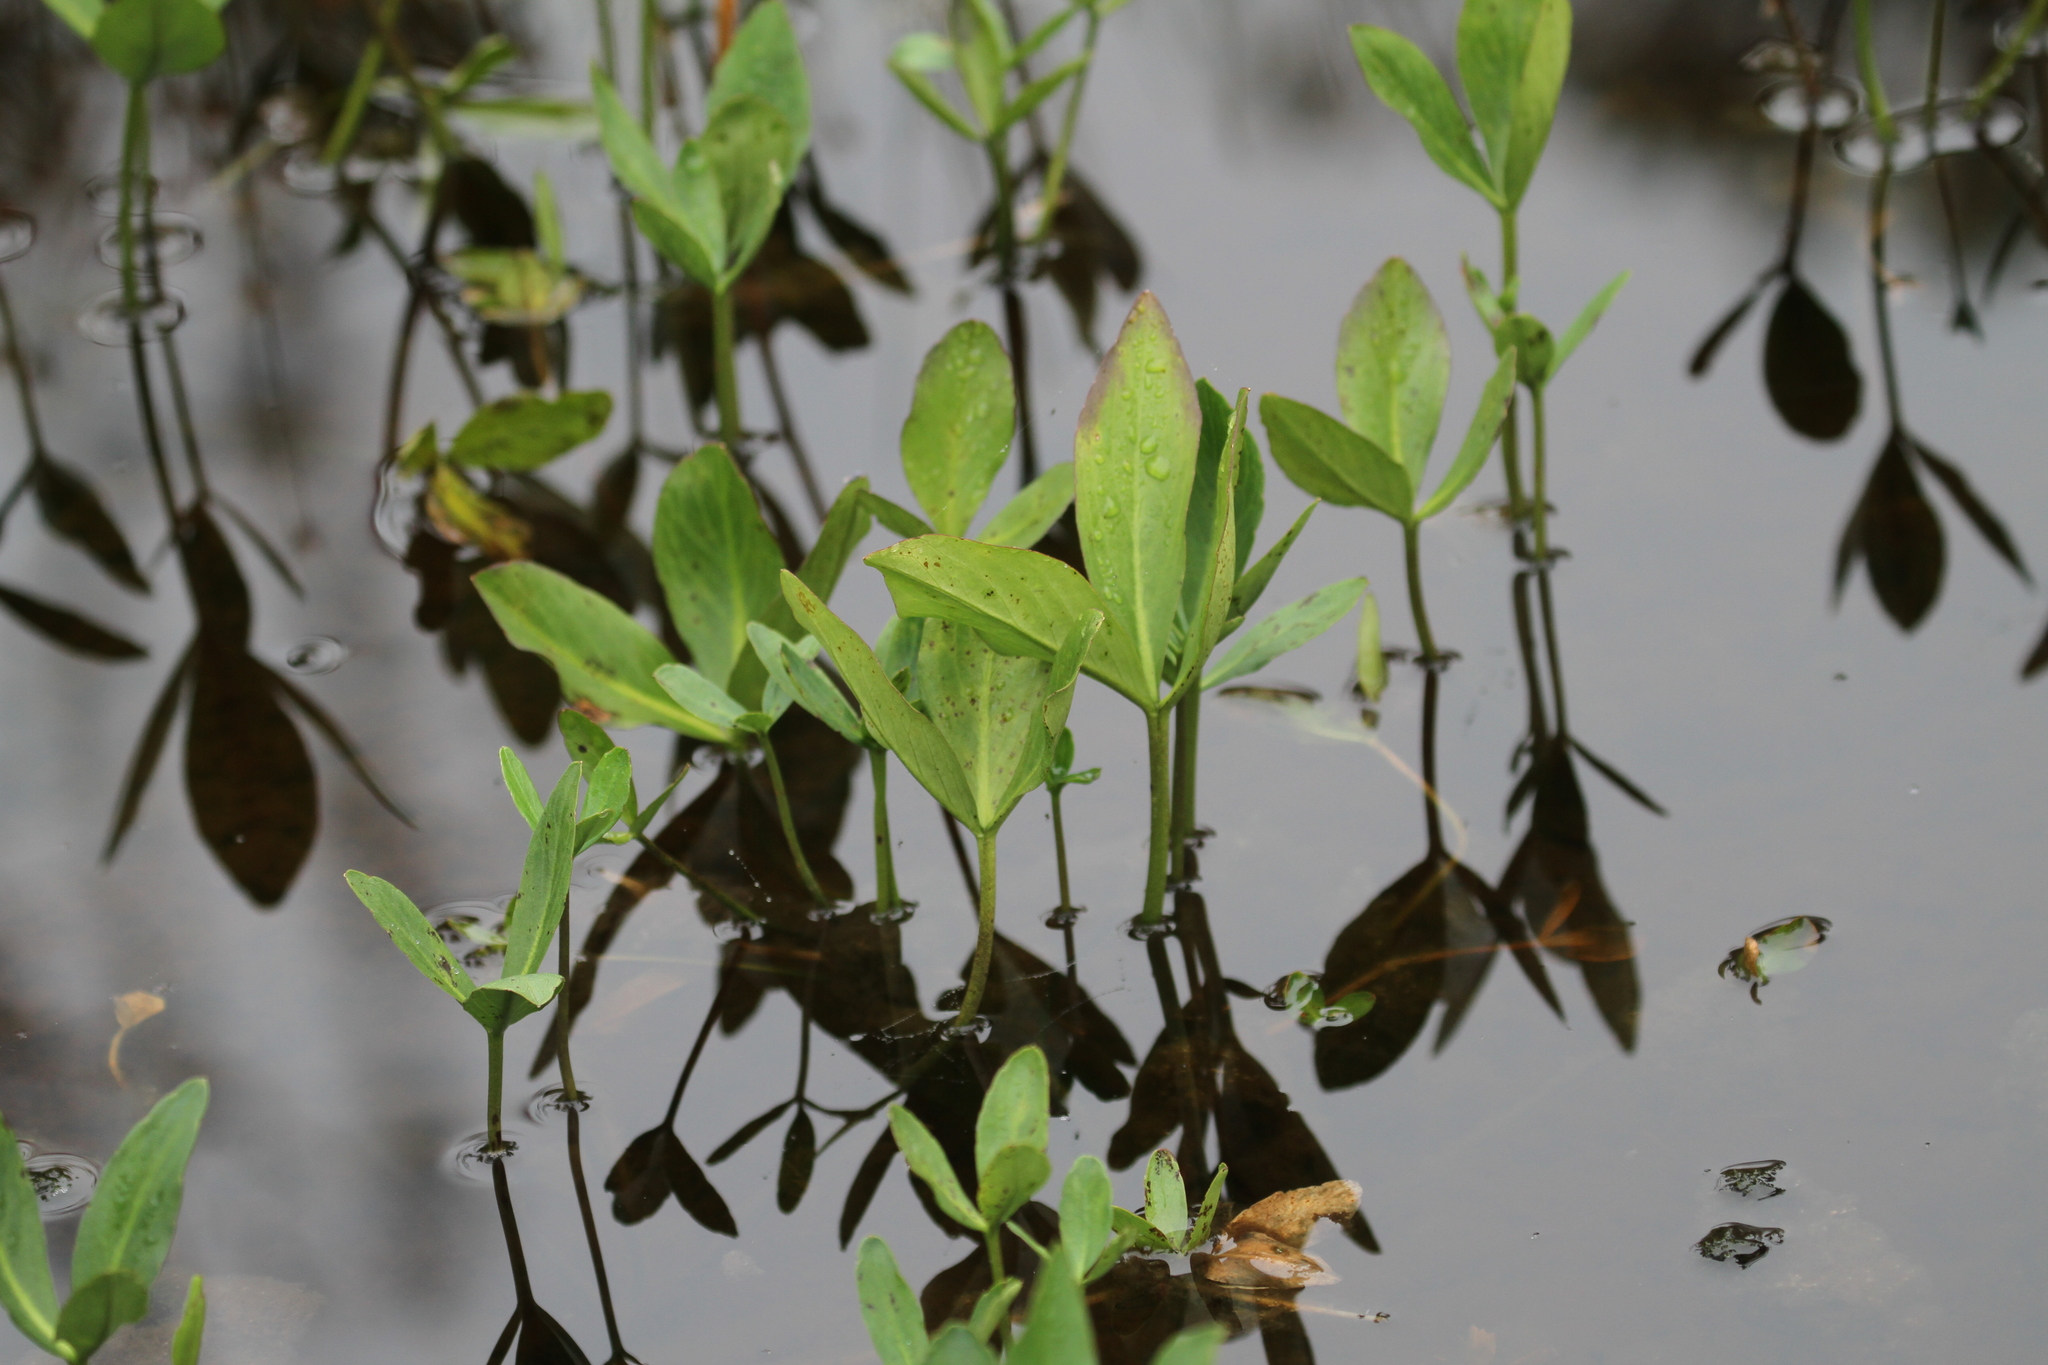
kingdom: Plantae
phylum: Tracheophyta
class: Magnoliopsida
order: Asterales
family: Menyanthaceae
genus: Menyanthes
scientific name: Menyanthes trifoliata
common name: Bogbean
